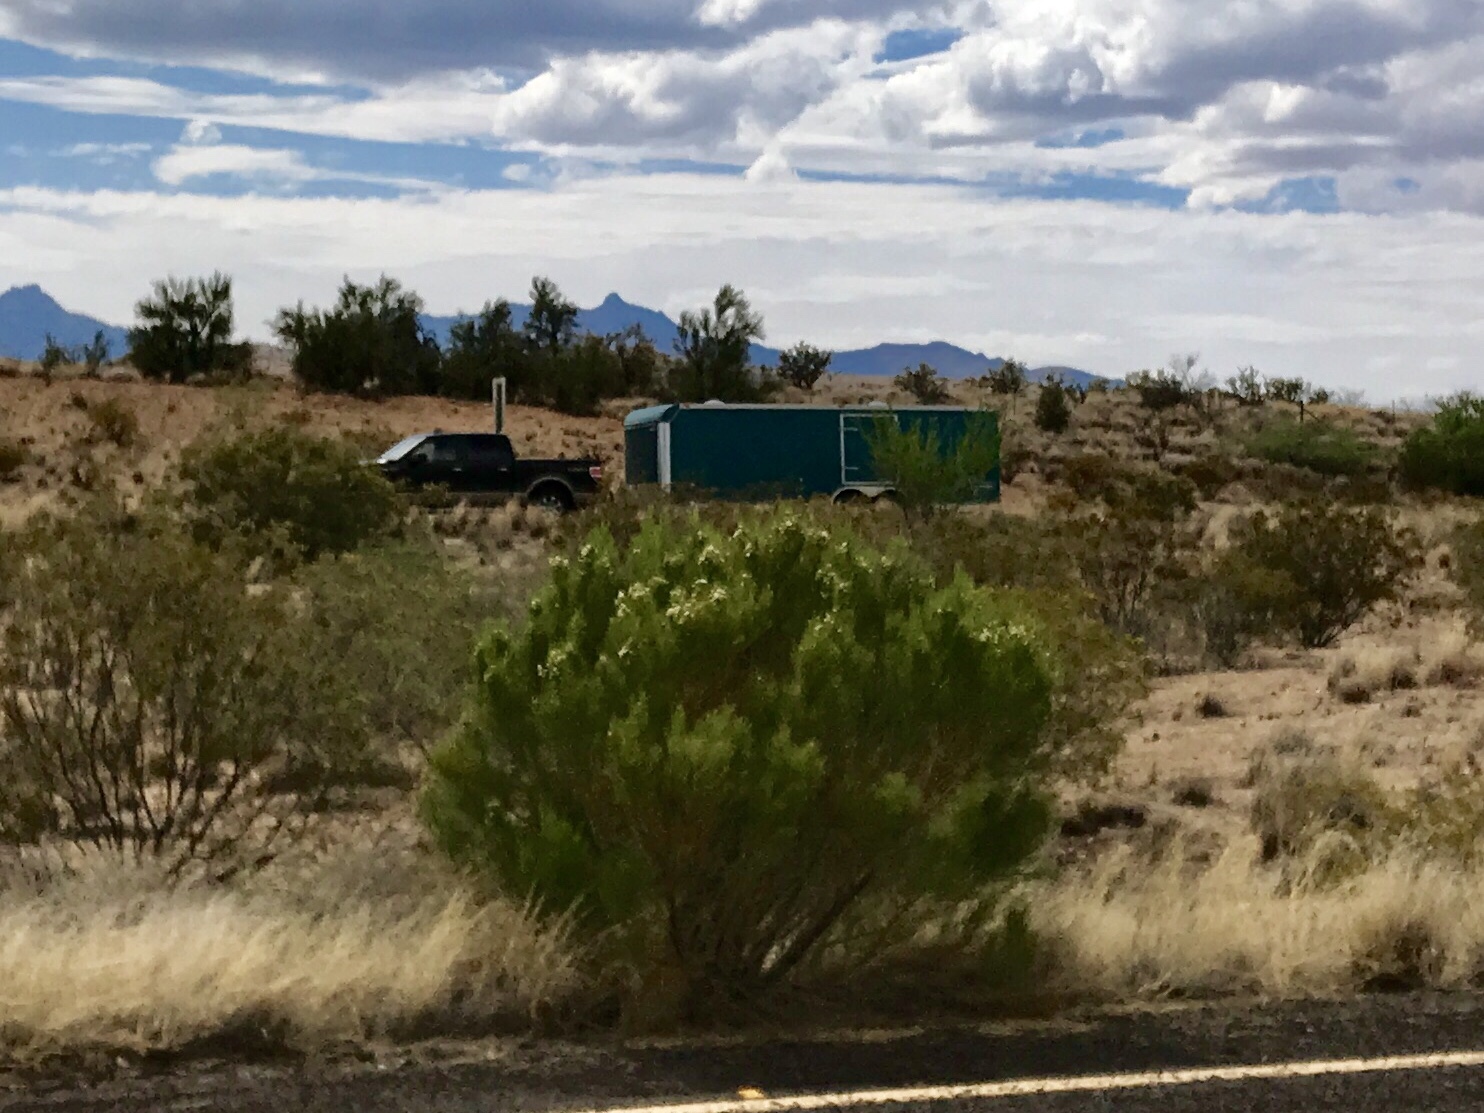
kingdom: Plantae
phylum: Tracheophyta
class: Magnoliopsida
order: Asterales
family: Asteraceae
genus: Baccharis
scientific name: Baccharis sarothroides
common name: Desert-broom
